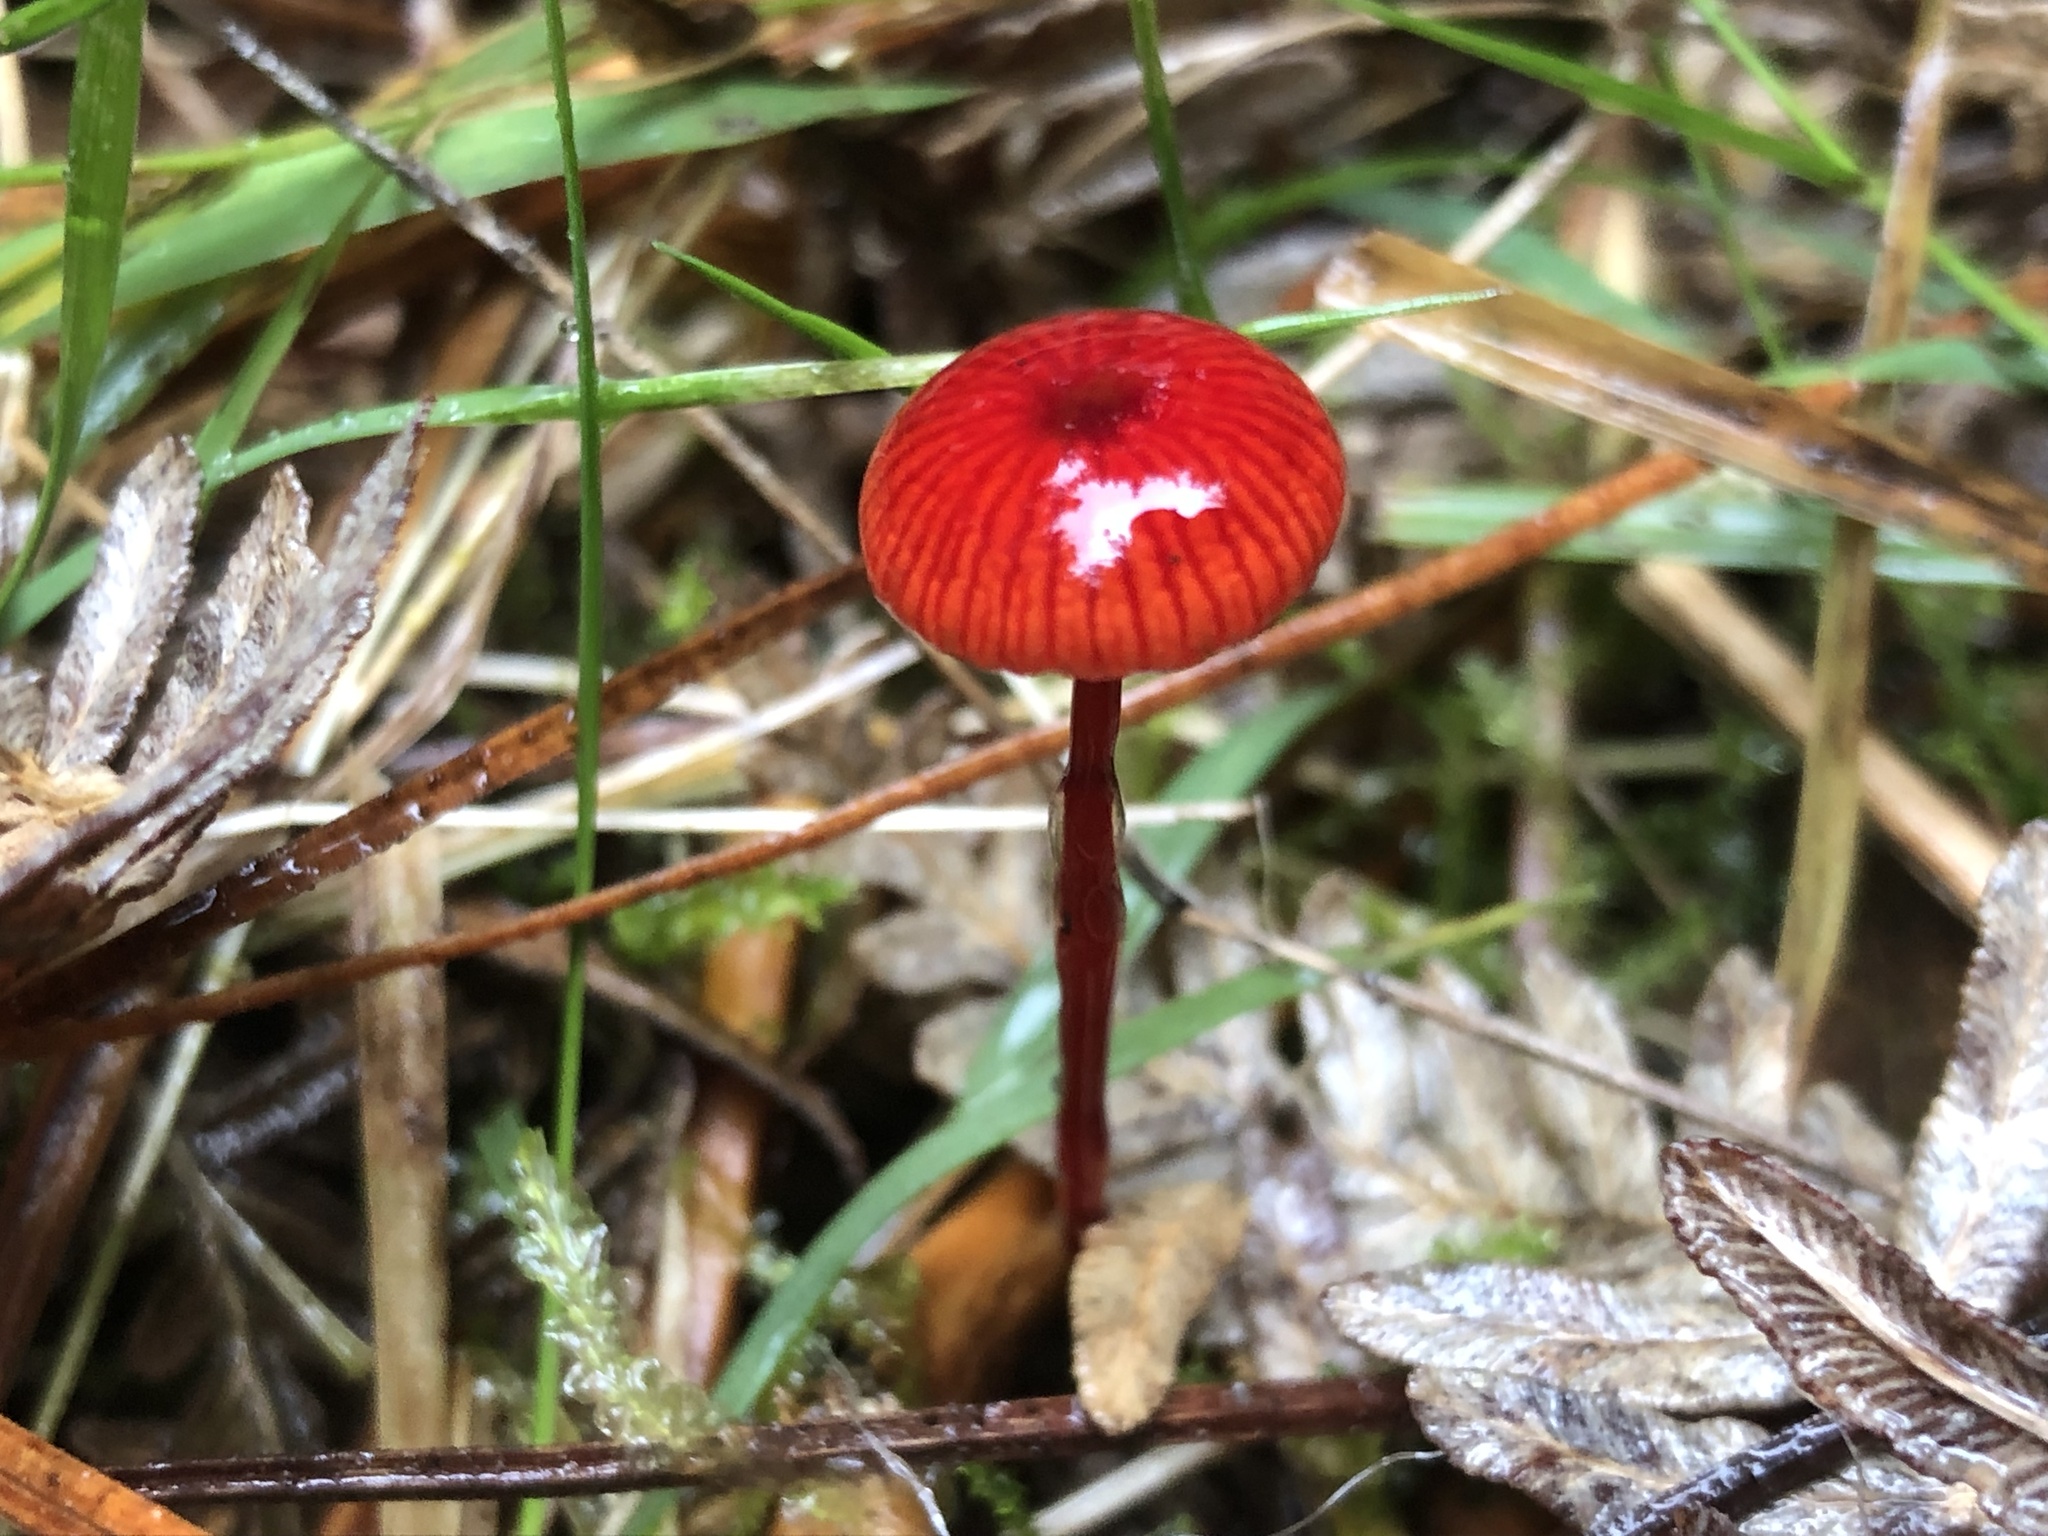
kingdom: Fungi
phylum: Basidiomycota
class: Agaricomycetes
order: Agaricales
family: Mycenaceae
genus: Cruentomycena
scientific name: Cruentomycena viscidocruenta
